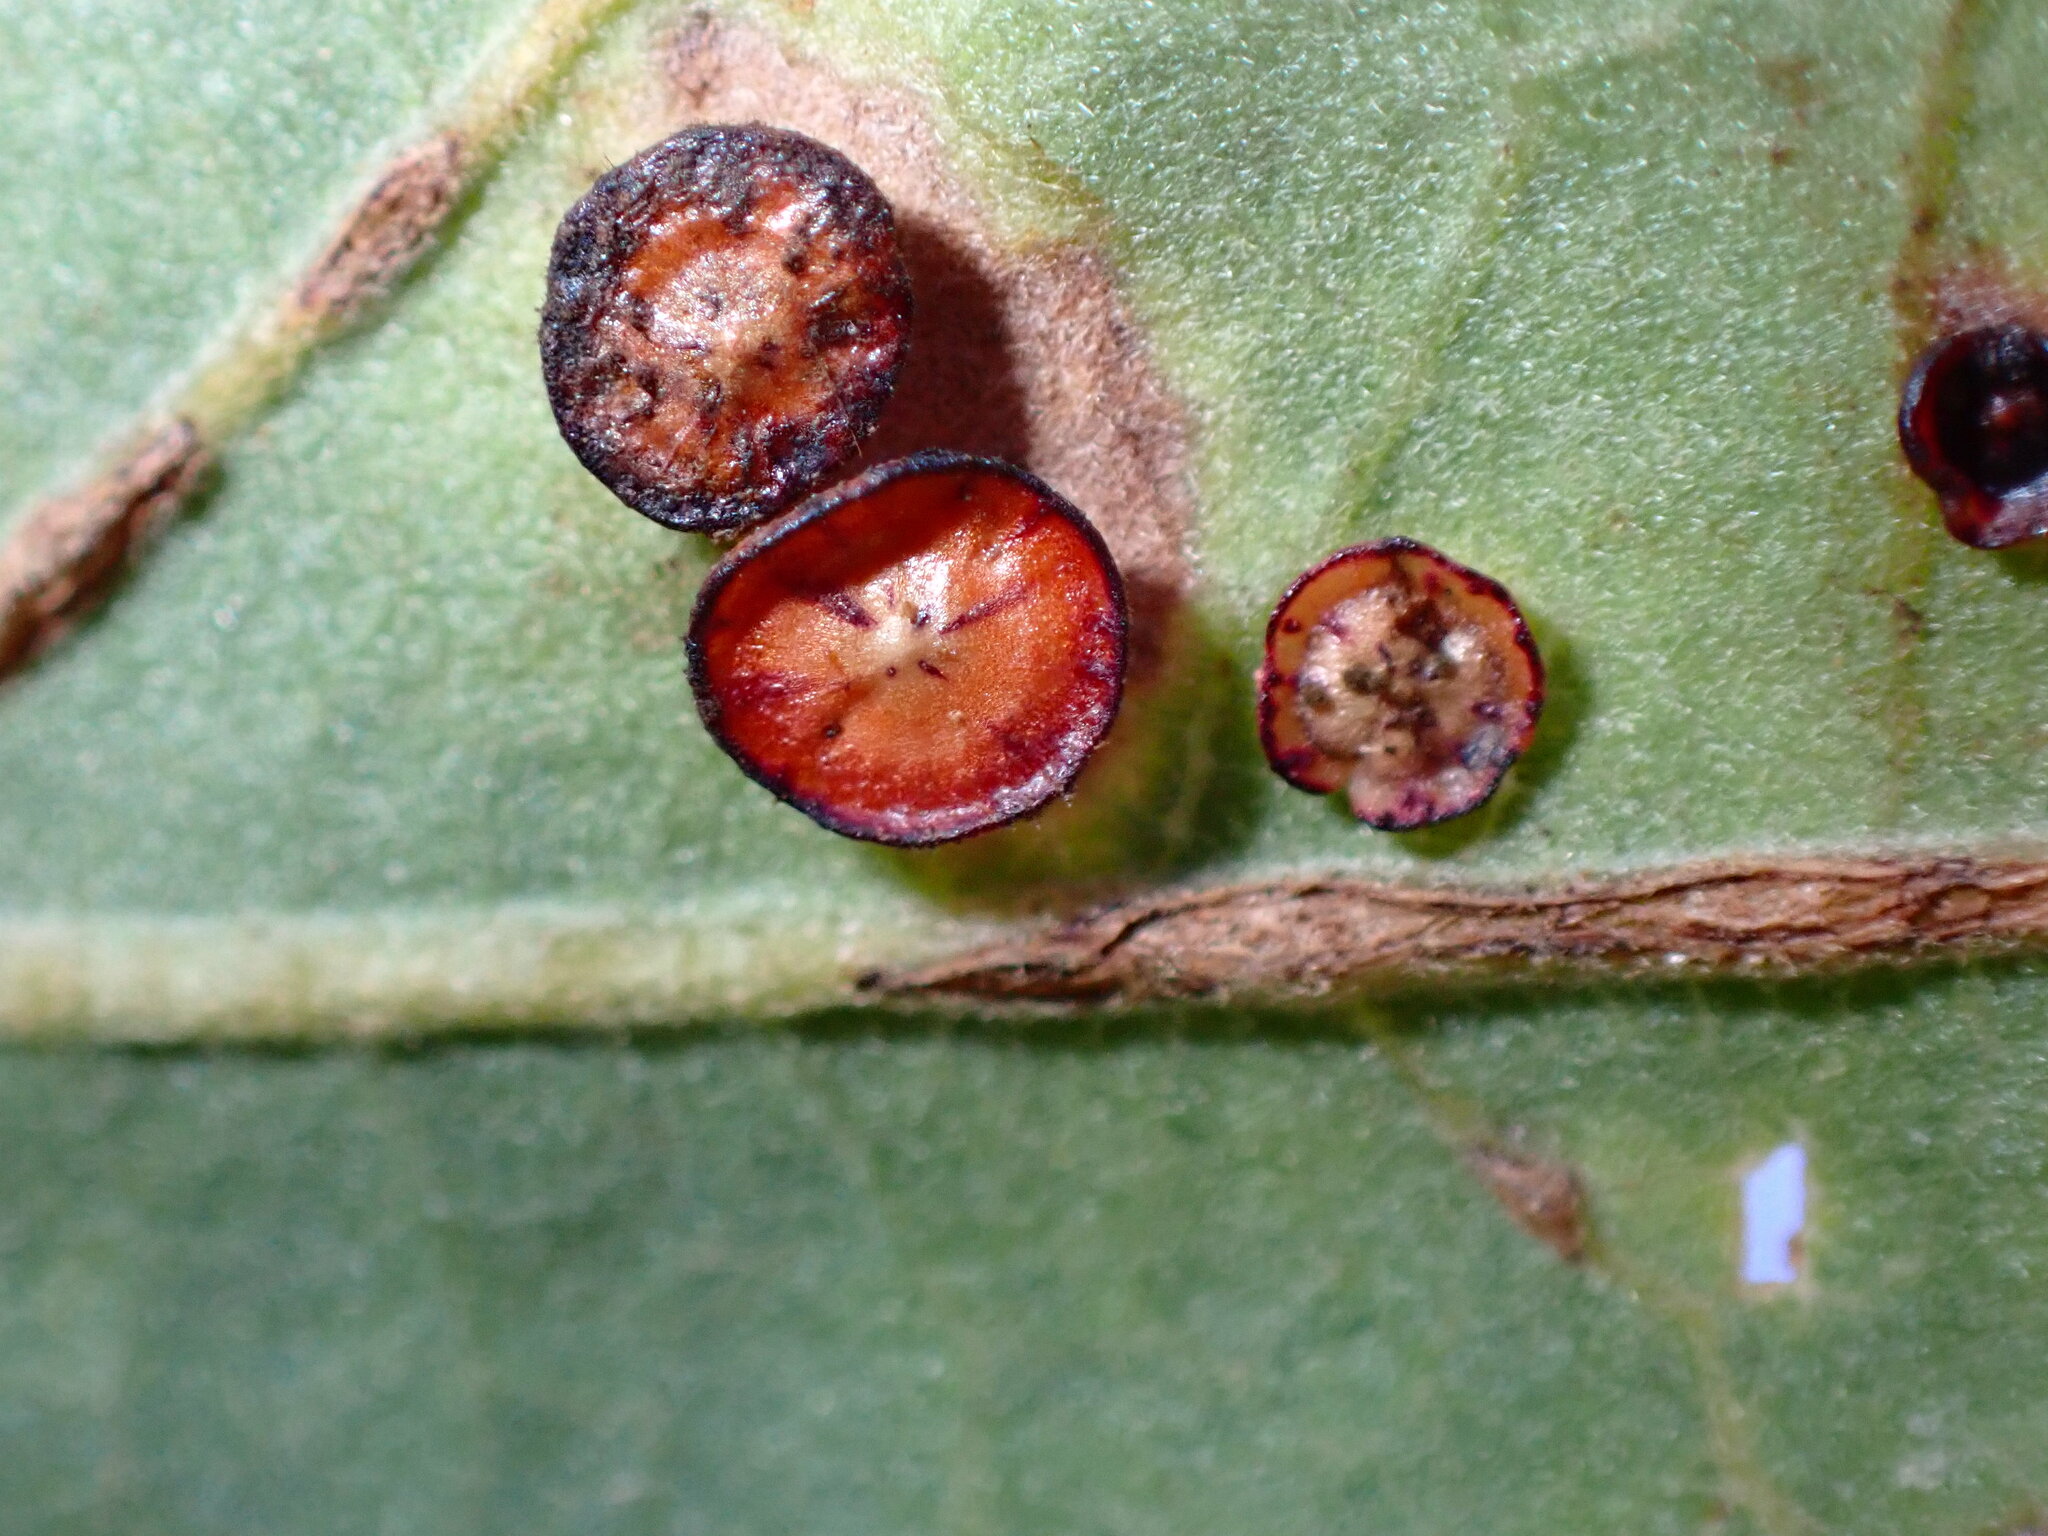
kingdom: Animalia
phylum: Arthropoda
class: Insecta
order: Hymenoptera
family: Cynipidae
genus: Andricus
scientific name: Andricus
